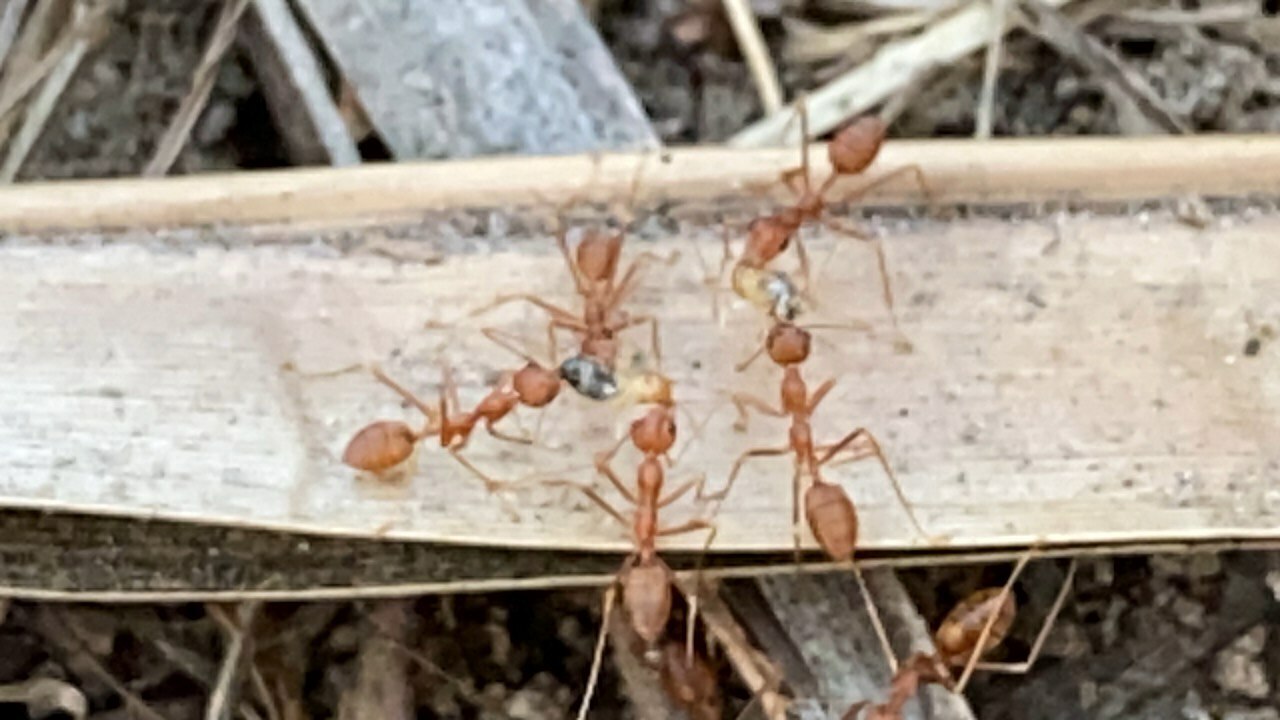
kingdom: Animalia
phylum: Arthropoda
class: Insecta
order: Hymenoptera
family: Formicidae
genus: Oecophylla
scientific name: Oecophylla smaragdina
